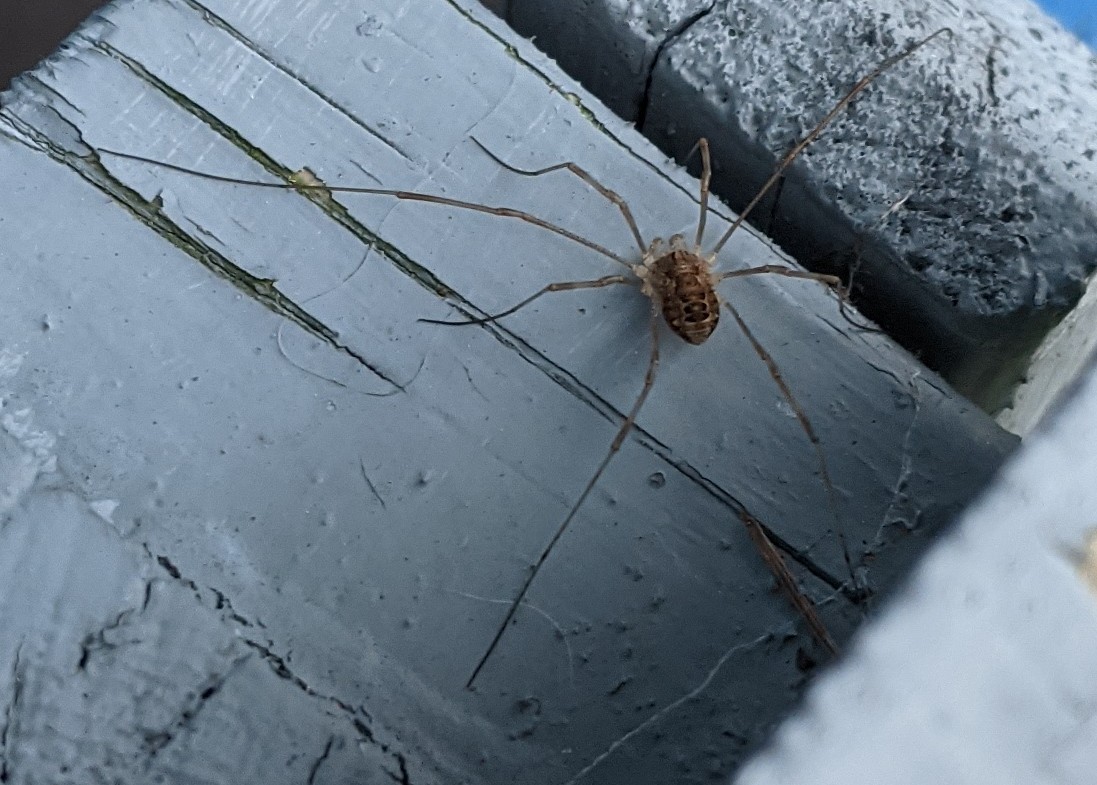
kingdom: Animalia
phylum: Arthropoda
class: Arachnida
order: Opiliones
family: Phalangiidae
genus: Rilaena
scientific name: Rilaena triangularis
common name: Spring harvestman
